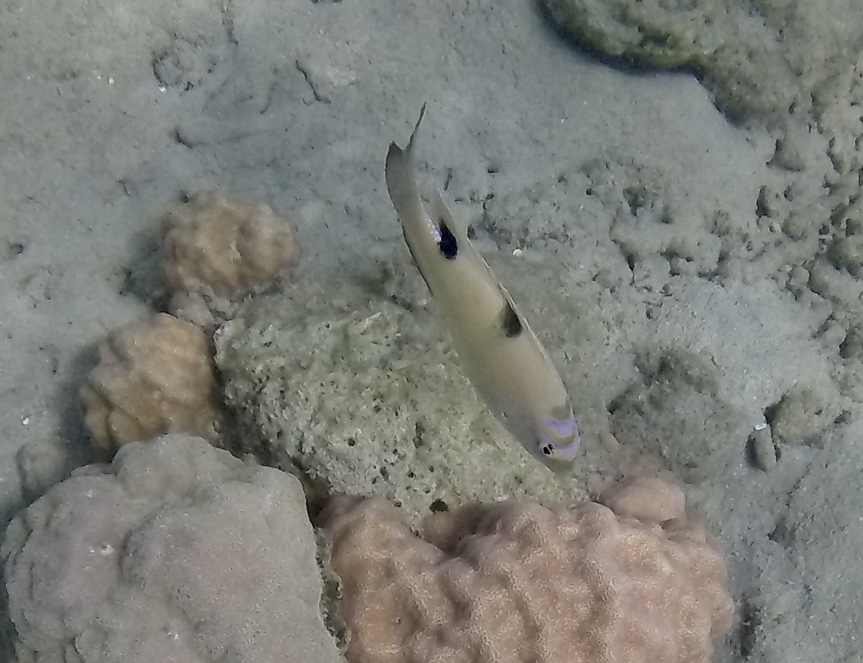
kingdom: Animalia
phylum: Chordata
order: Perciformes
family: Pomacentridae
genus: Dischistodus
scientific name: Dischistodus perspicillatus
